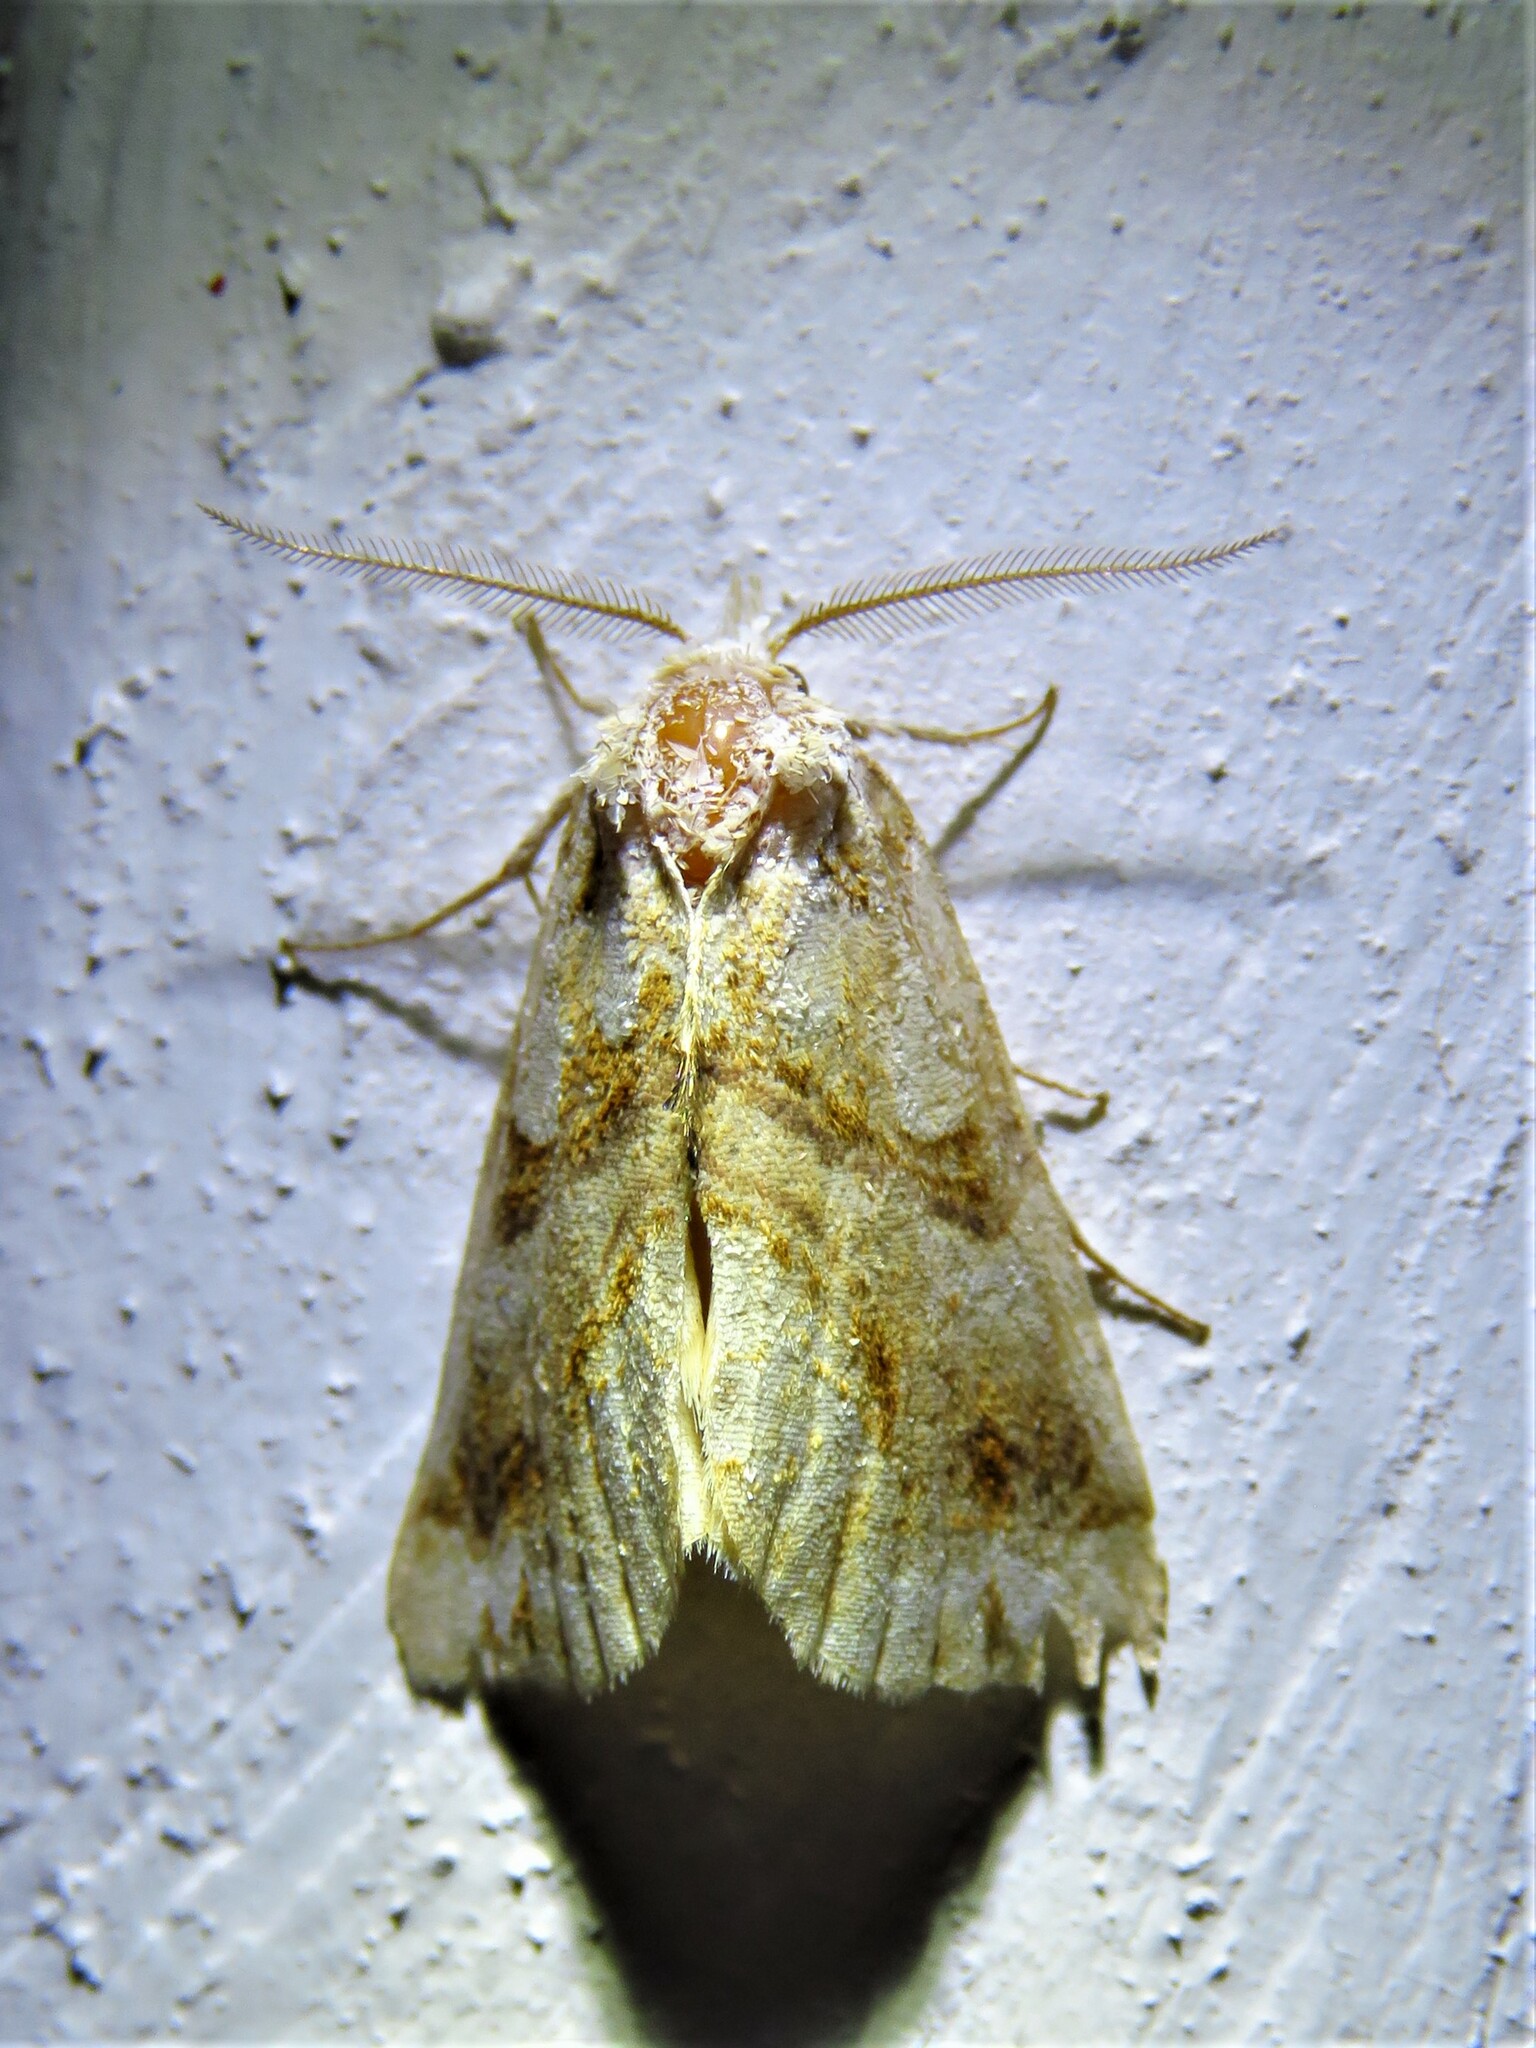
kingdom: Animalia
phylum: Arthropoda
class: Insecta
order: Lepidoptera
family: Erebidae
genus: Plusiodonta
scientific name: Plusiodonta compressipalpis
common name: Moonseed moth
